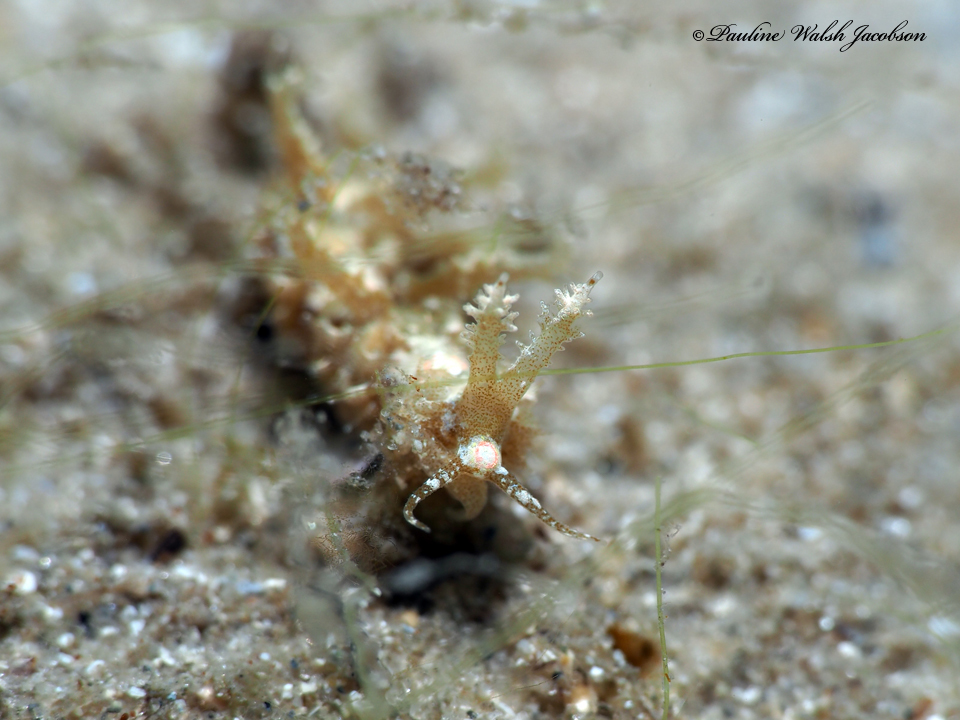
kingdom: Animalia
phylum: Mollusca
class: Gastropoda
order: Nudibranchia
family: Aeolidiidae
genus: Limenandra
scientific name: Limenandra nodosa
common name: Warty baeolidia
